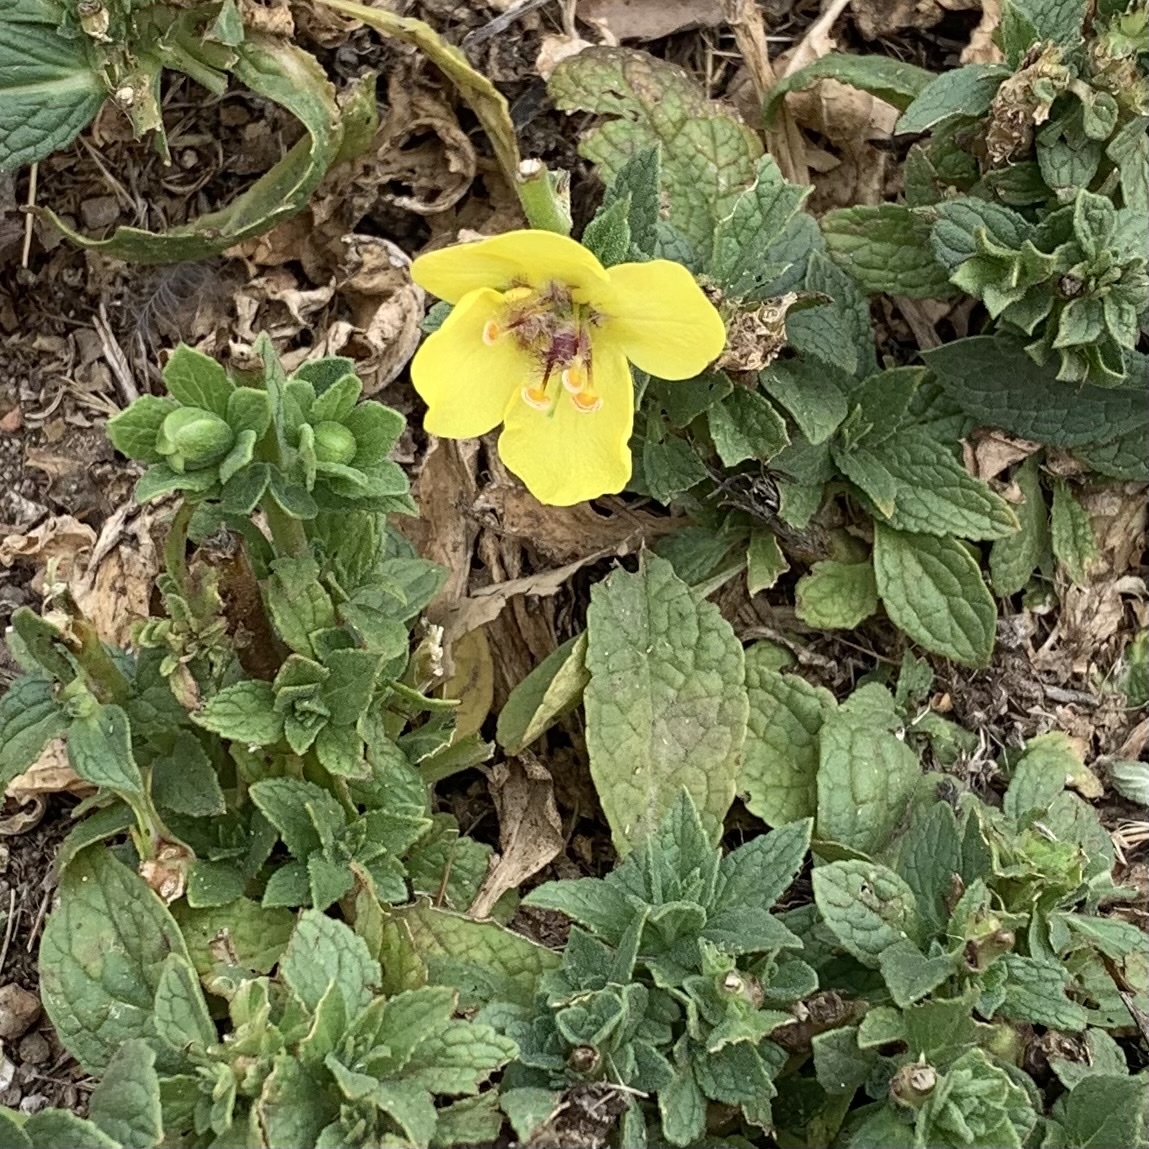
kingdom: Plantae
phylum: Tracheophyta
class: Magnoliopsida
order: Lamiales
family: Scrophulariaceae
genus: Verbascum
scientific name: Verbascum virgatum
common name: Twiggy mullein
